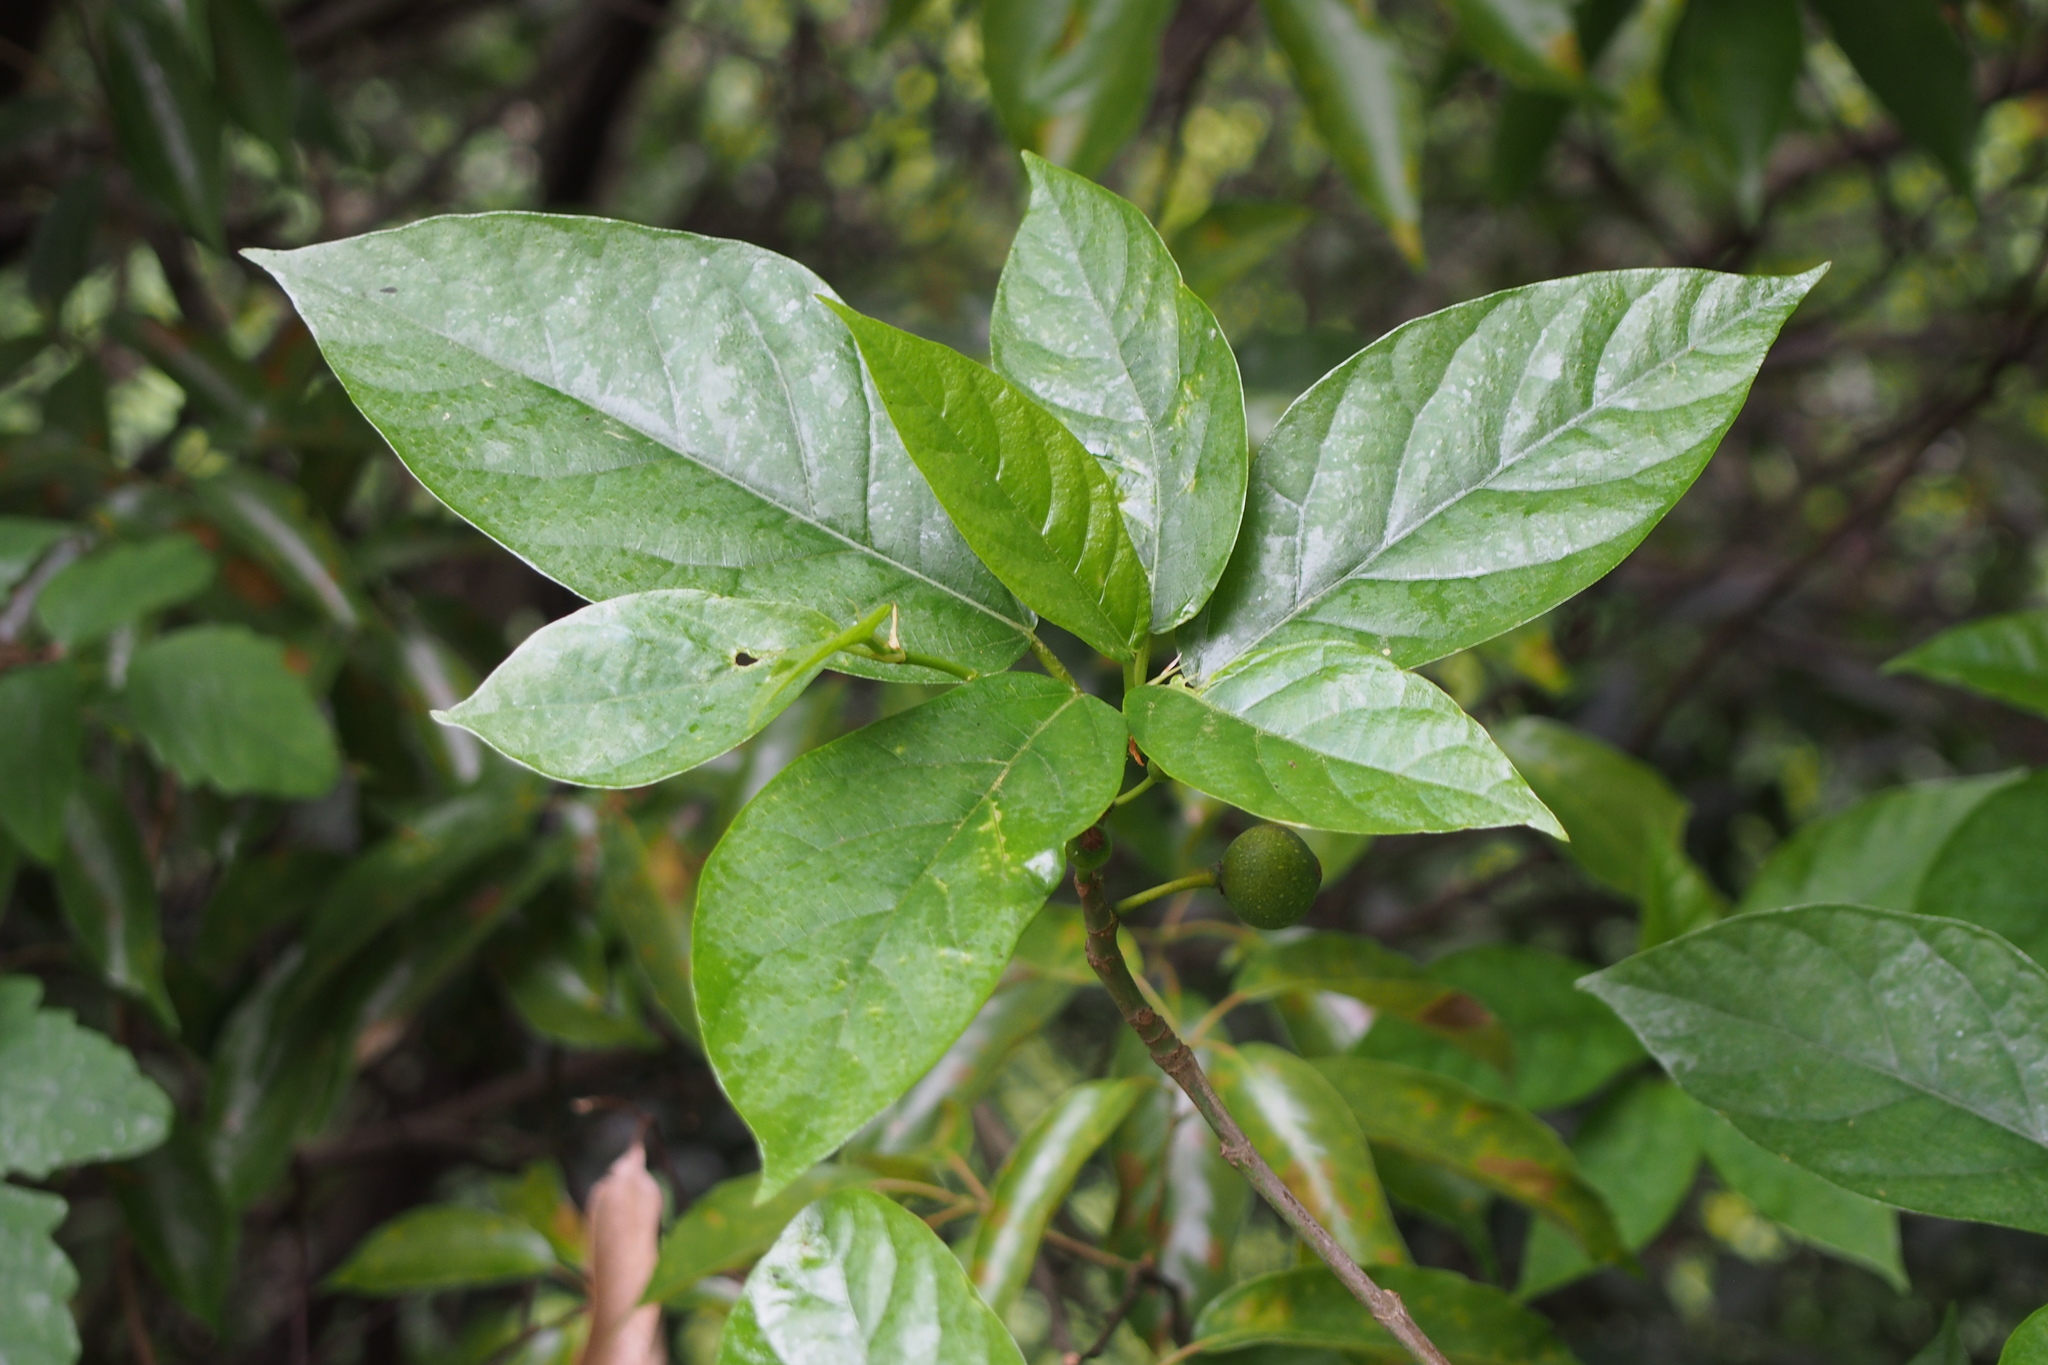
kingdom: Plantae
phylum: Tracheophyta
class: Magnoliopsida
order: Rosales
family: Moraceae
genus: Ficus
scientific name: Ficus erecta
